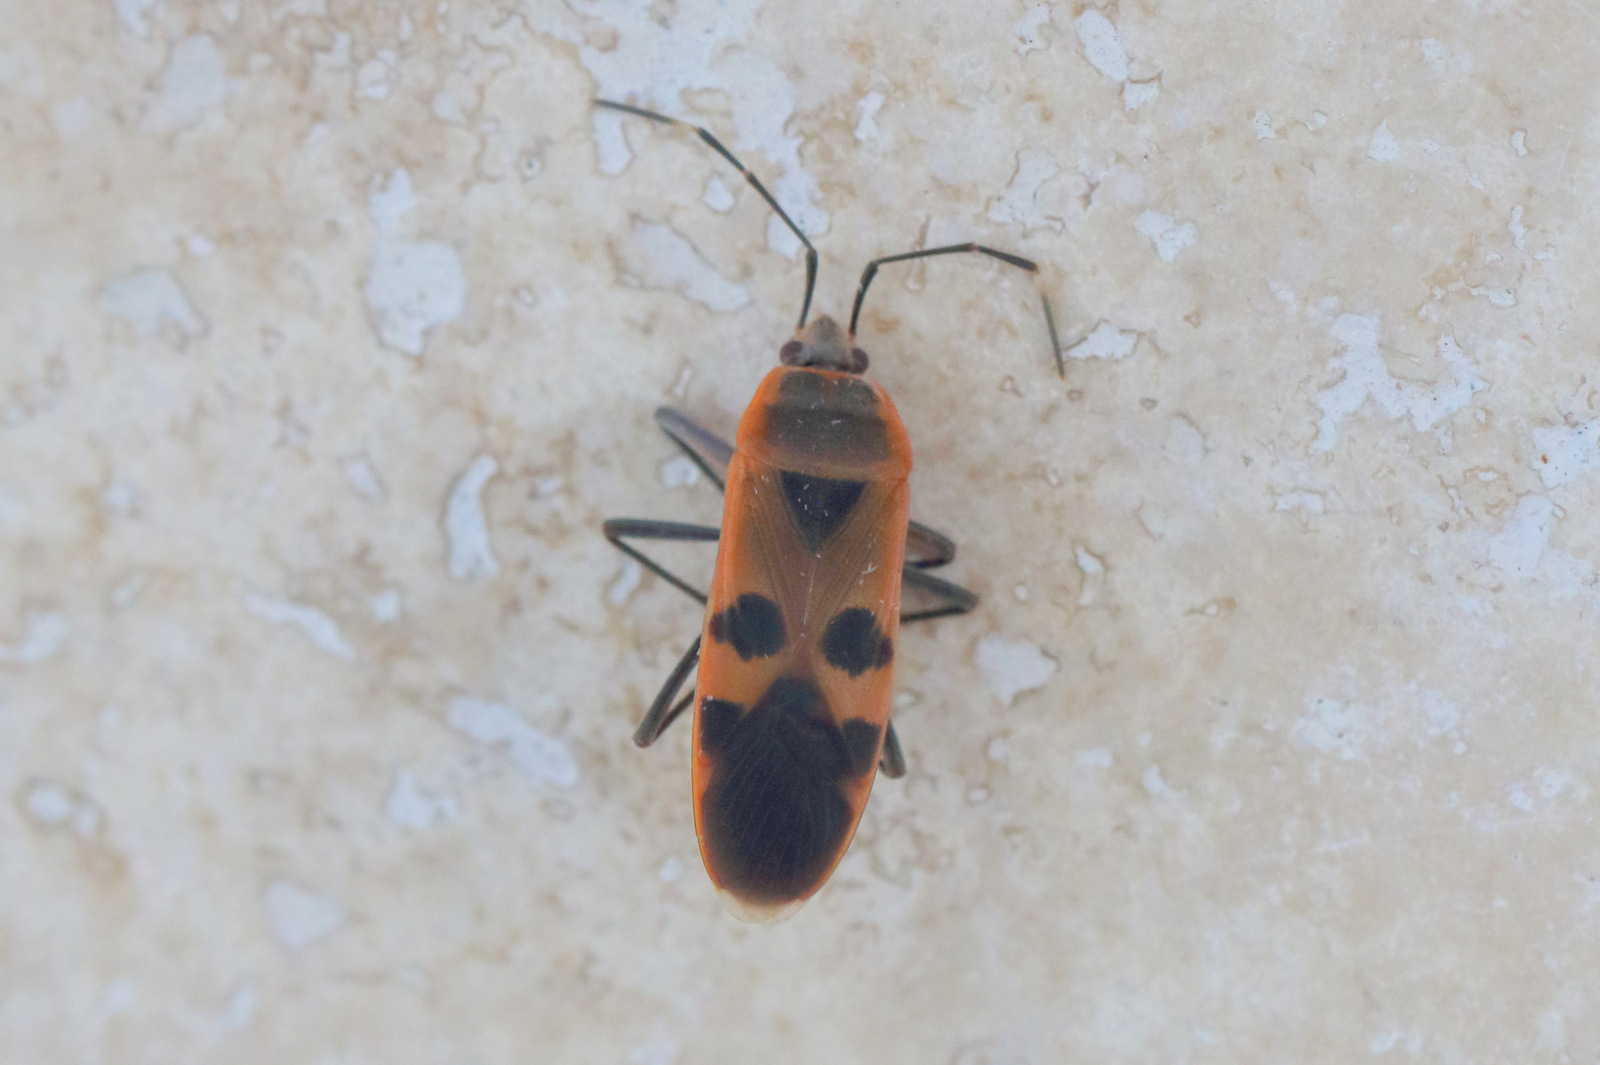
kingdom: Animalia
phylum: Arthropoda
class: Insecta
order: Hemiptera
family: Largidae
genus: Physopelta
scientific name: Physopelta gutta
